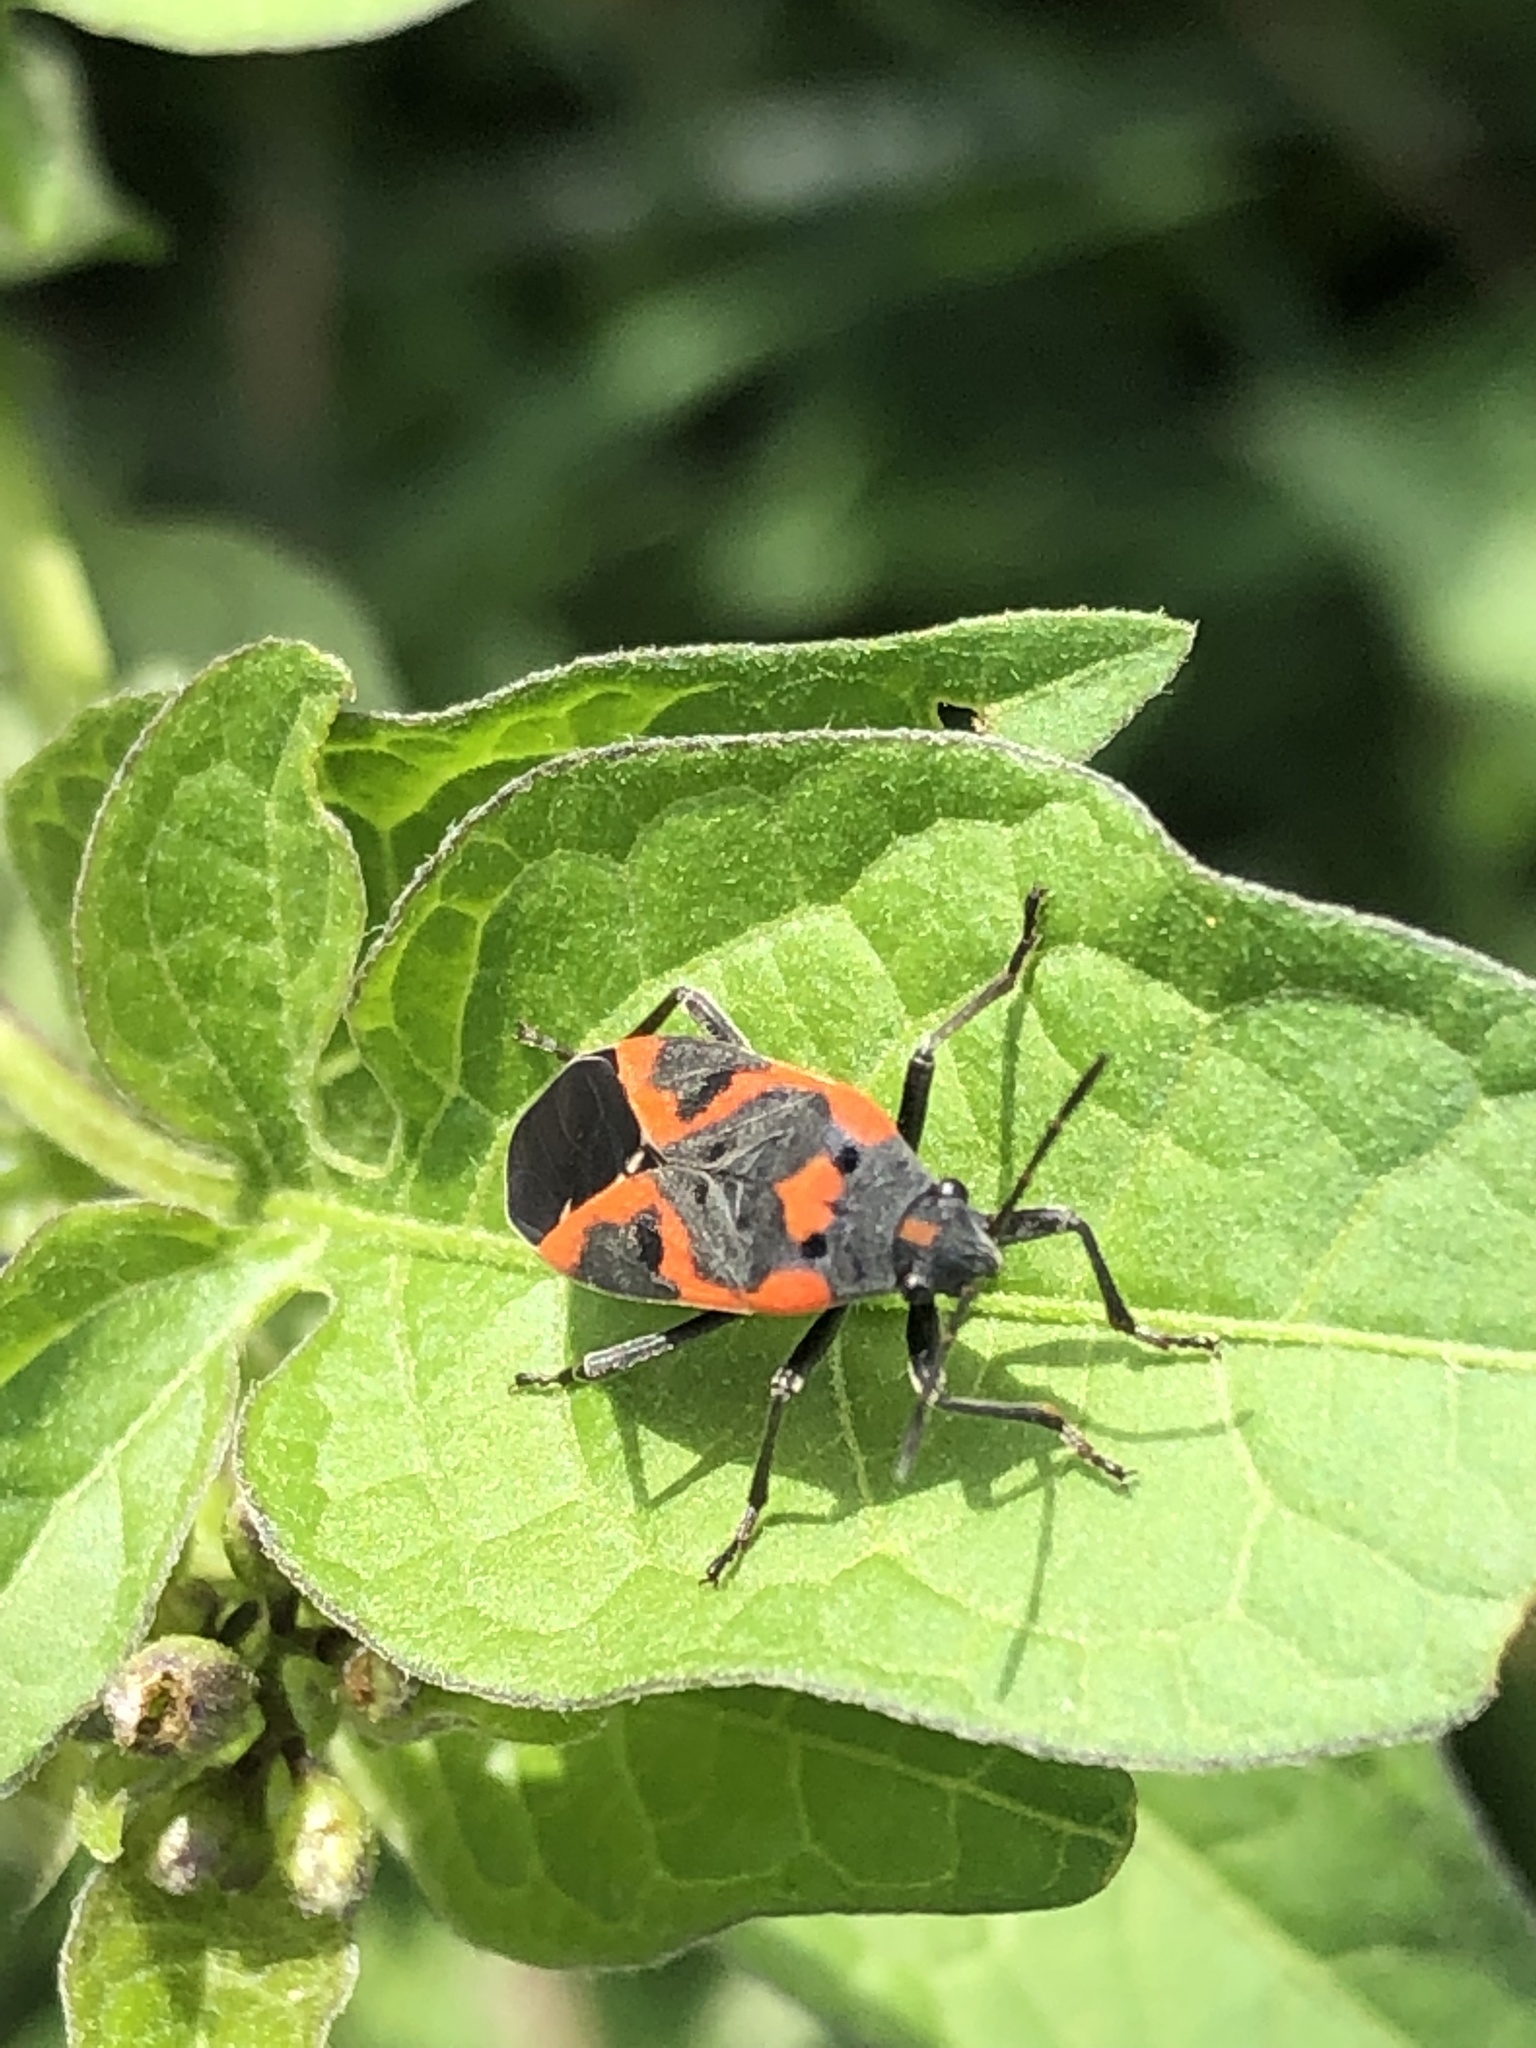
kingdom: Animalia
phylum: Arthropoda
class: Insecta
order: Hemiptera
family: Lygaeidae
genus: Lygaeus
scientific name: Lygaeus kalmii
